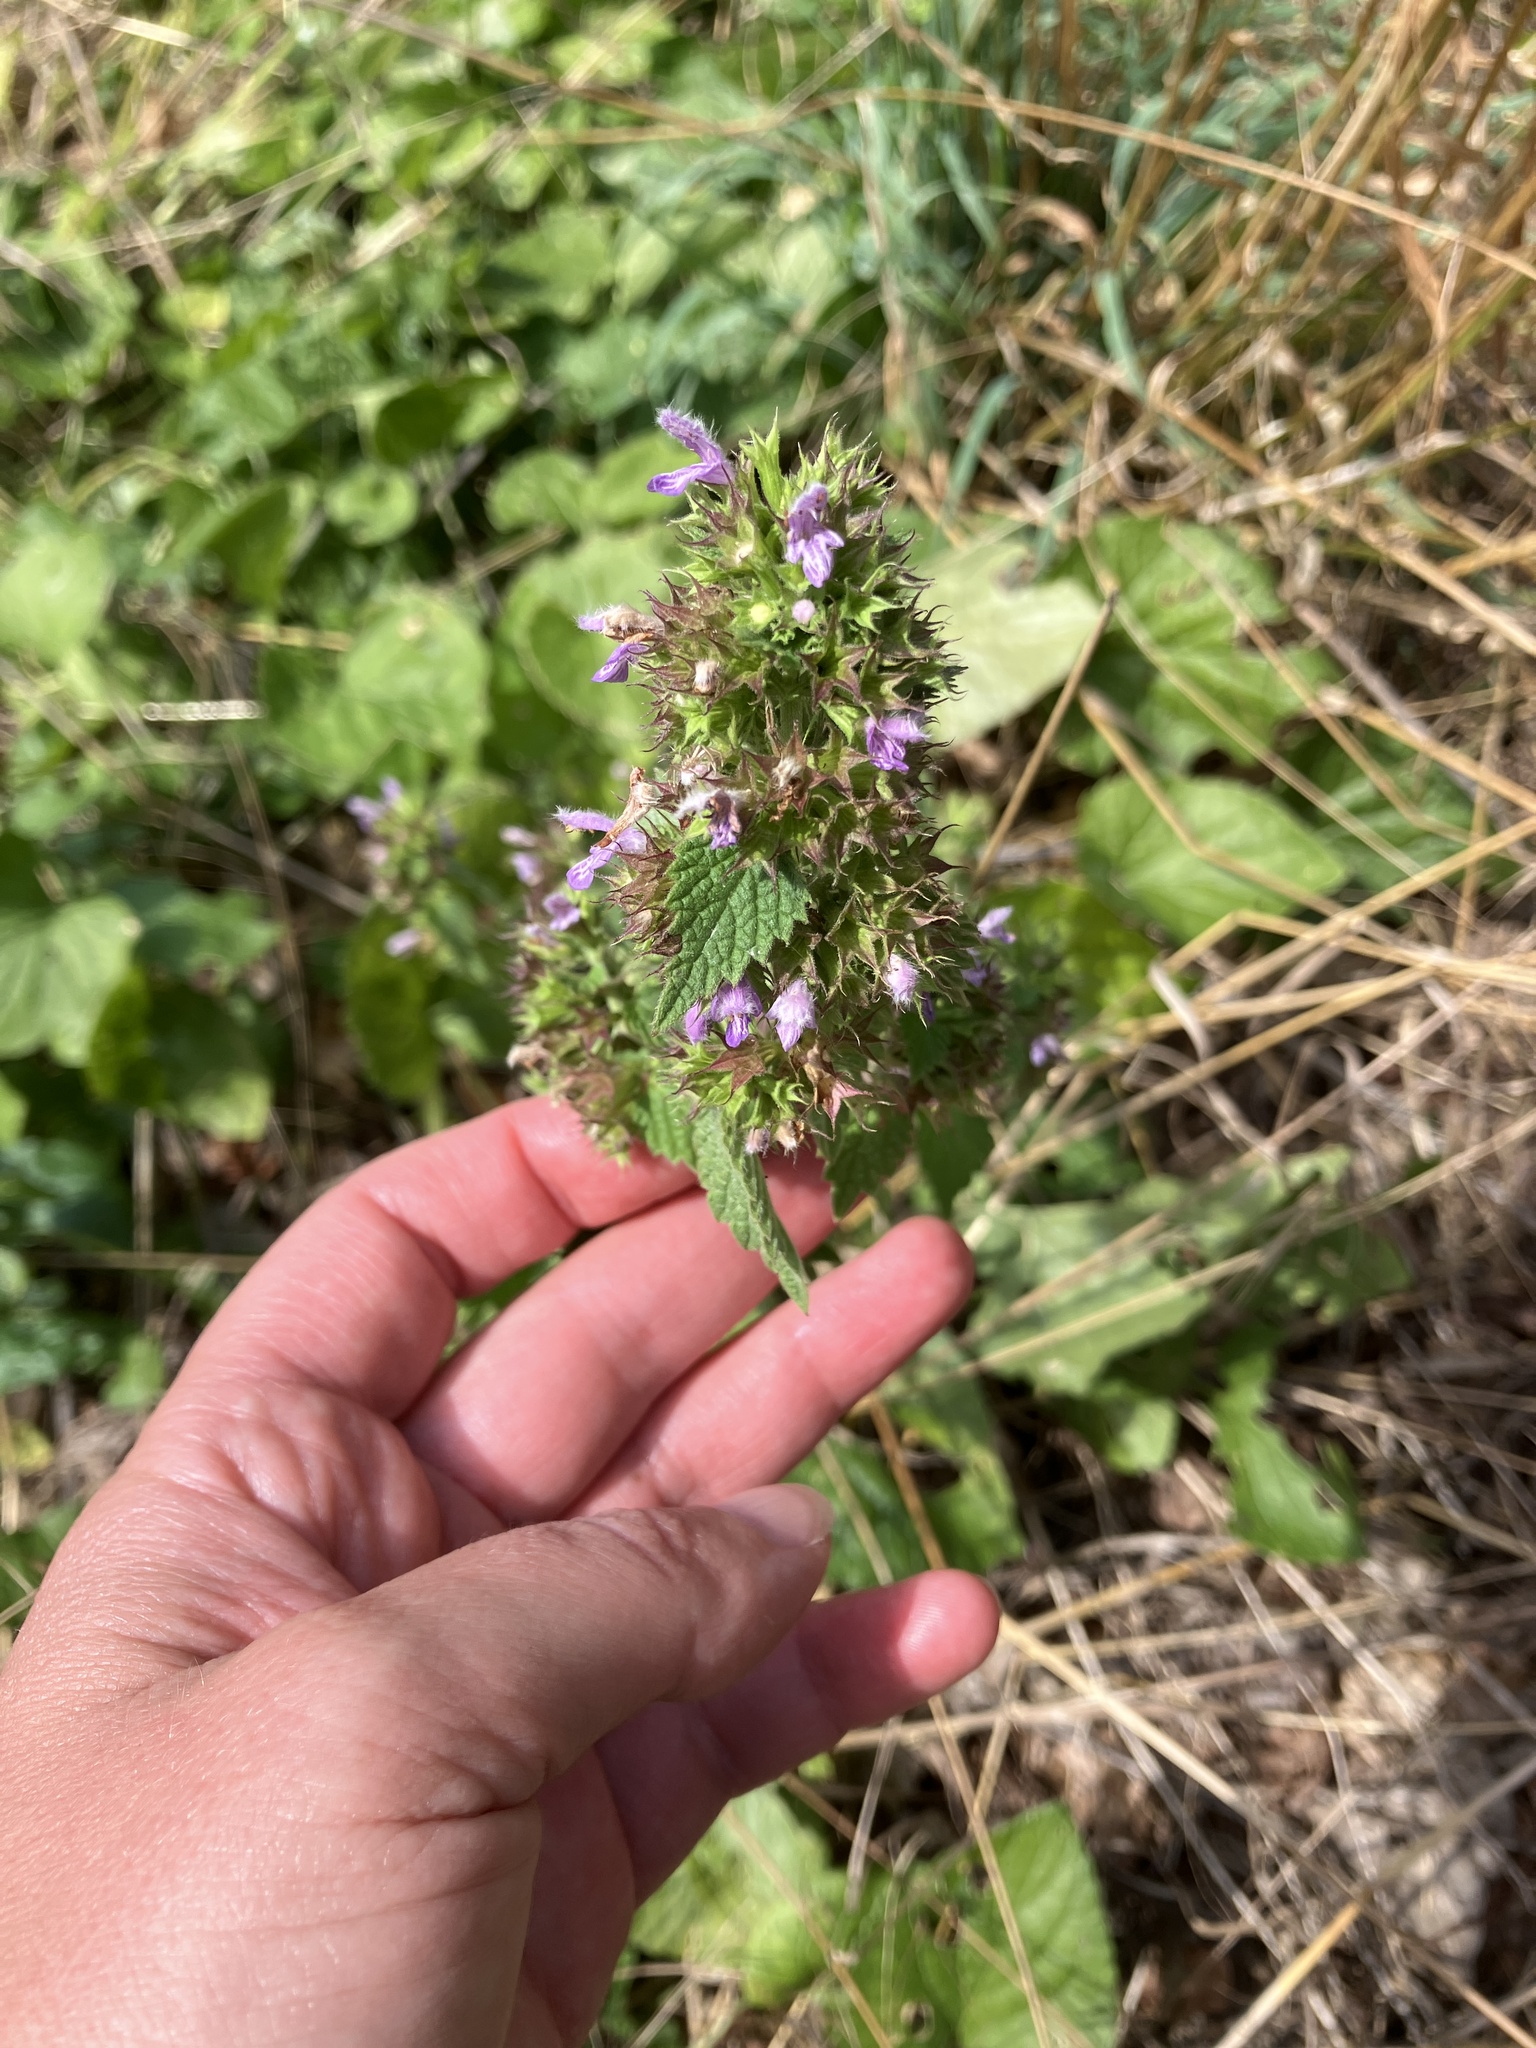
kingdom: Plantae
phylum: Tracheophyta
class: Magnoliopsida
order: Lamiales
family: Lamiaceae
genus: Ballota
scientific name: Ballota nigra
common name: Black horehound
